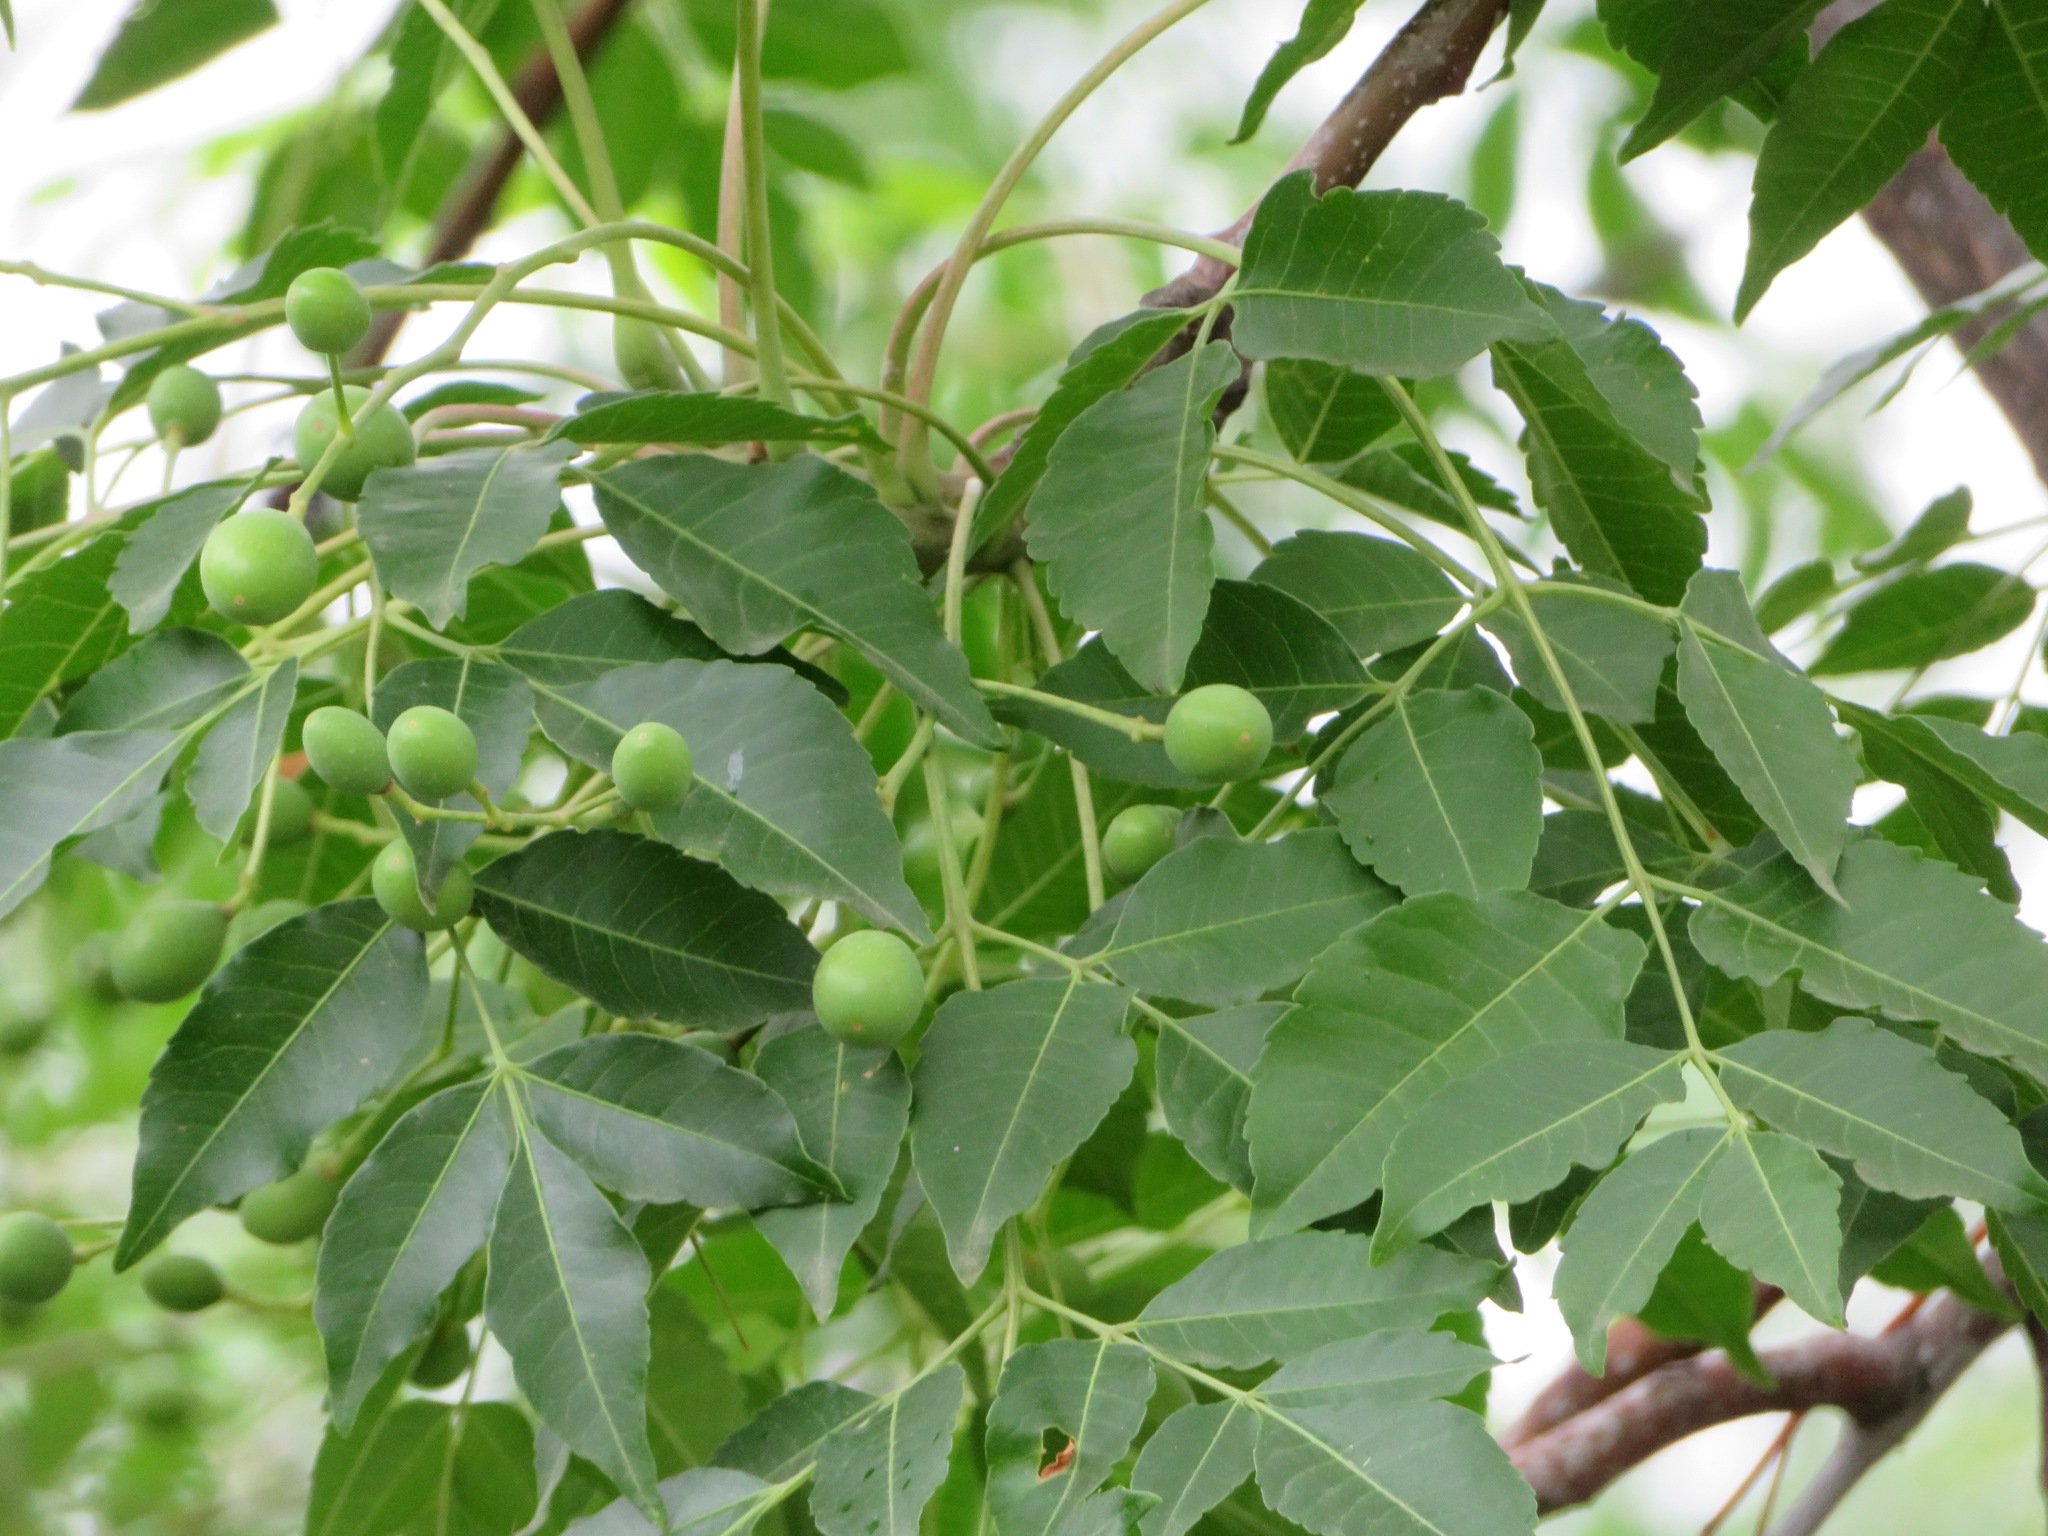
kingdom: Plantae
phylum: Tracheophyta
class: Magnoliopsida
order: Sapindales
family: Meliaceae
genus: Melia
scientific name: Melia azedarach
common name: Chinaberrytree
